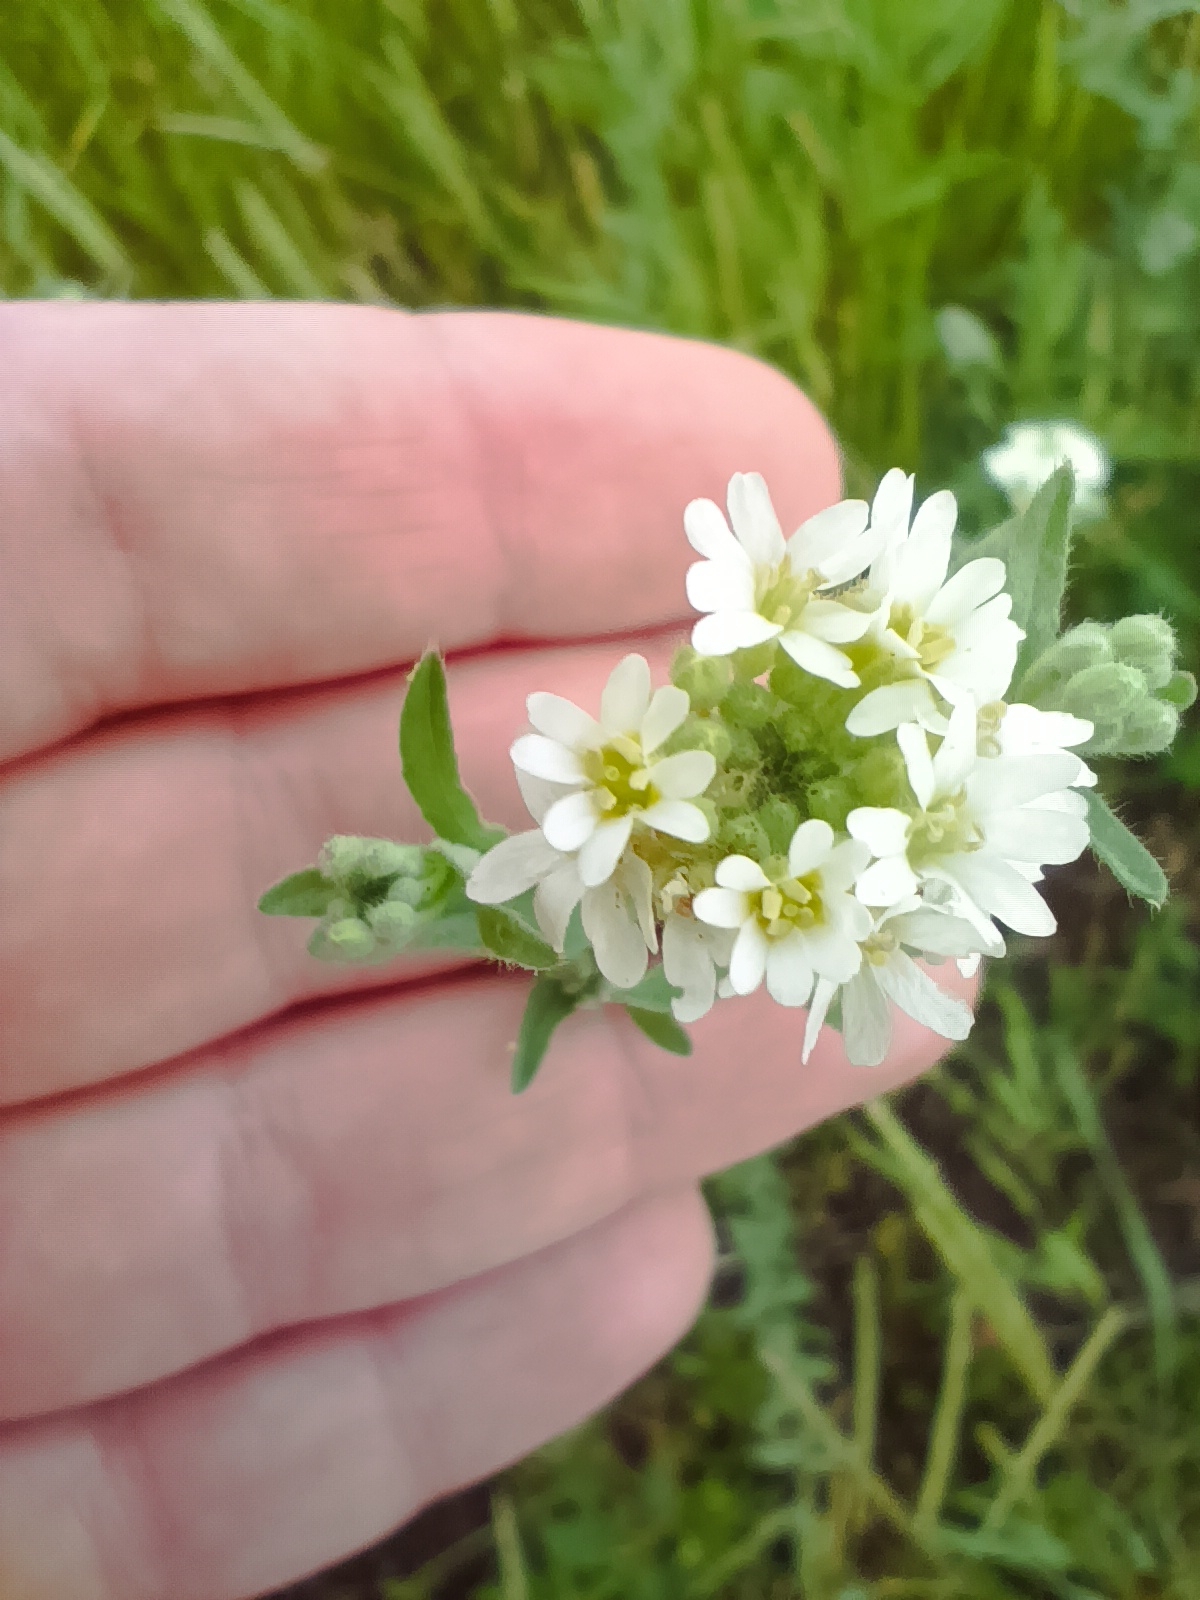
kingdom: Plantae
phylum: Tracheophyta
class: Magnoliopsida
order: Brassicales
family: Brassicaceae
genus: Berteroa
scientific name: Berteroa incana
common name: Hoary alison
